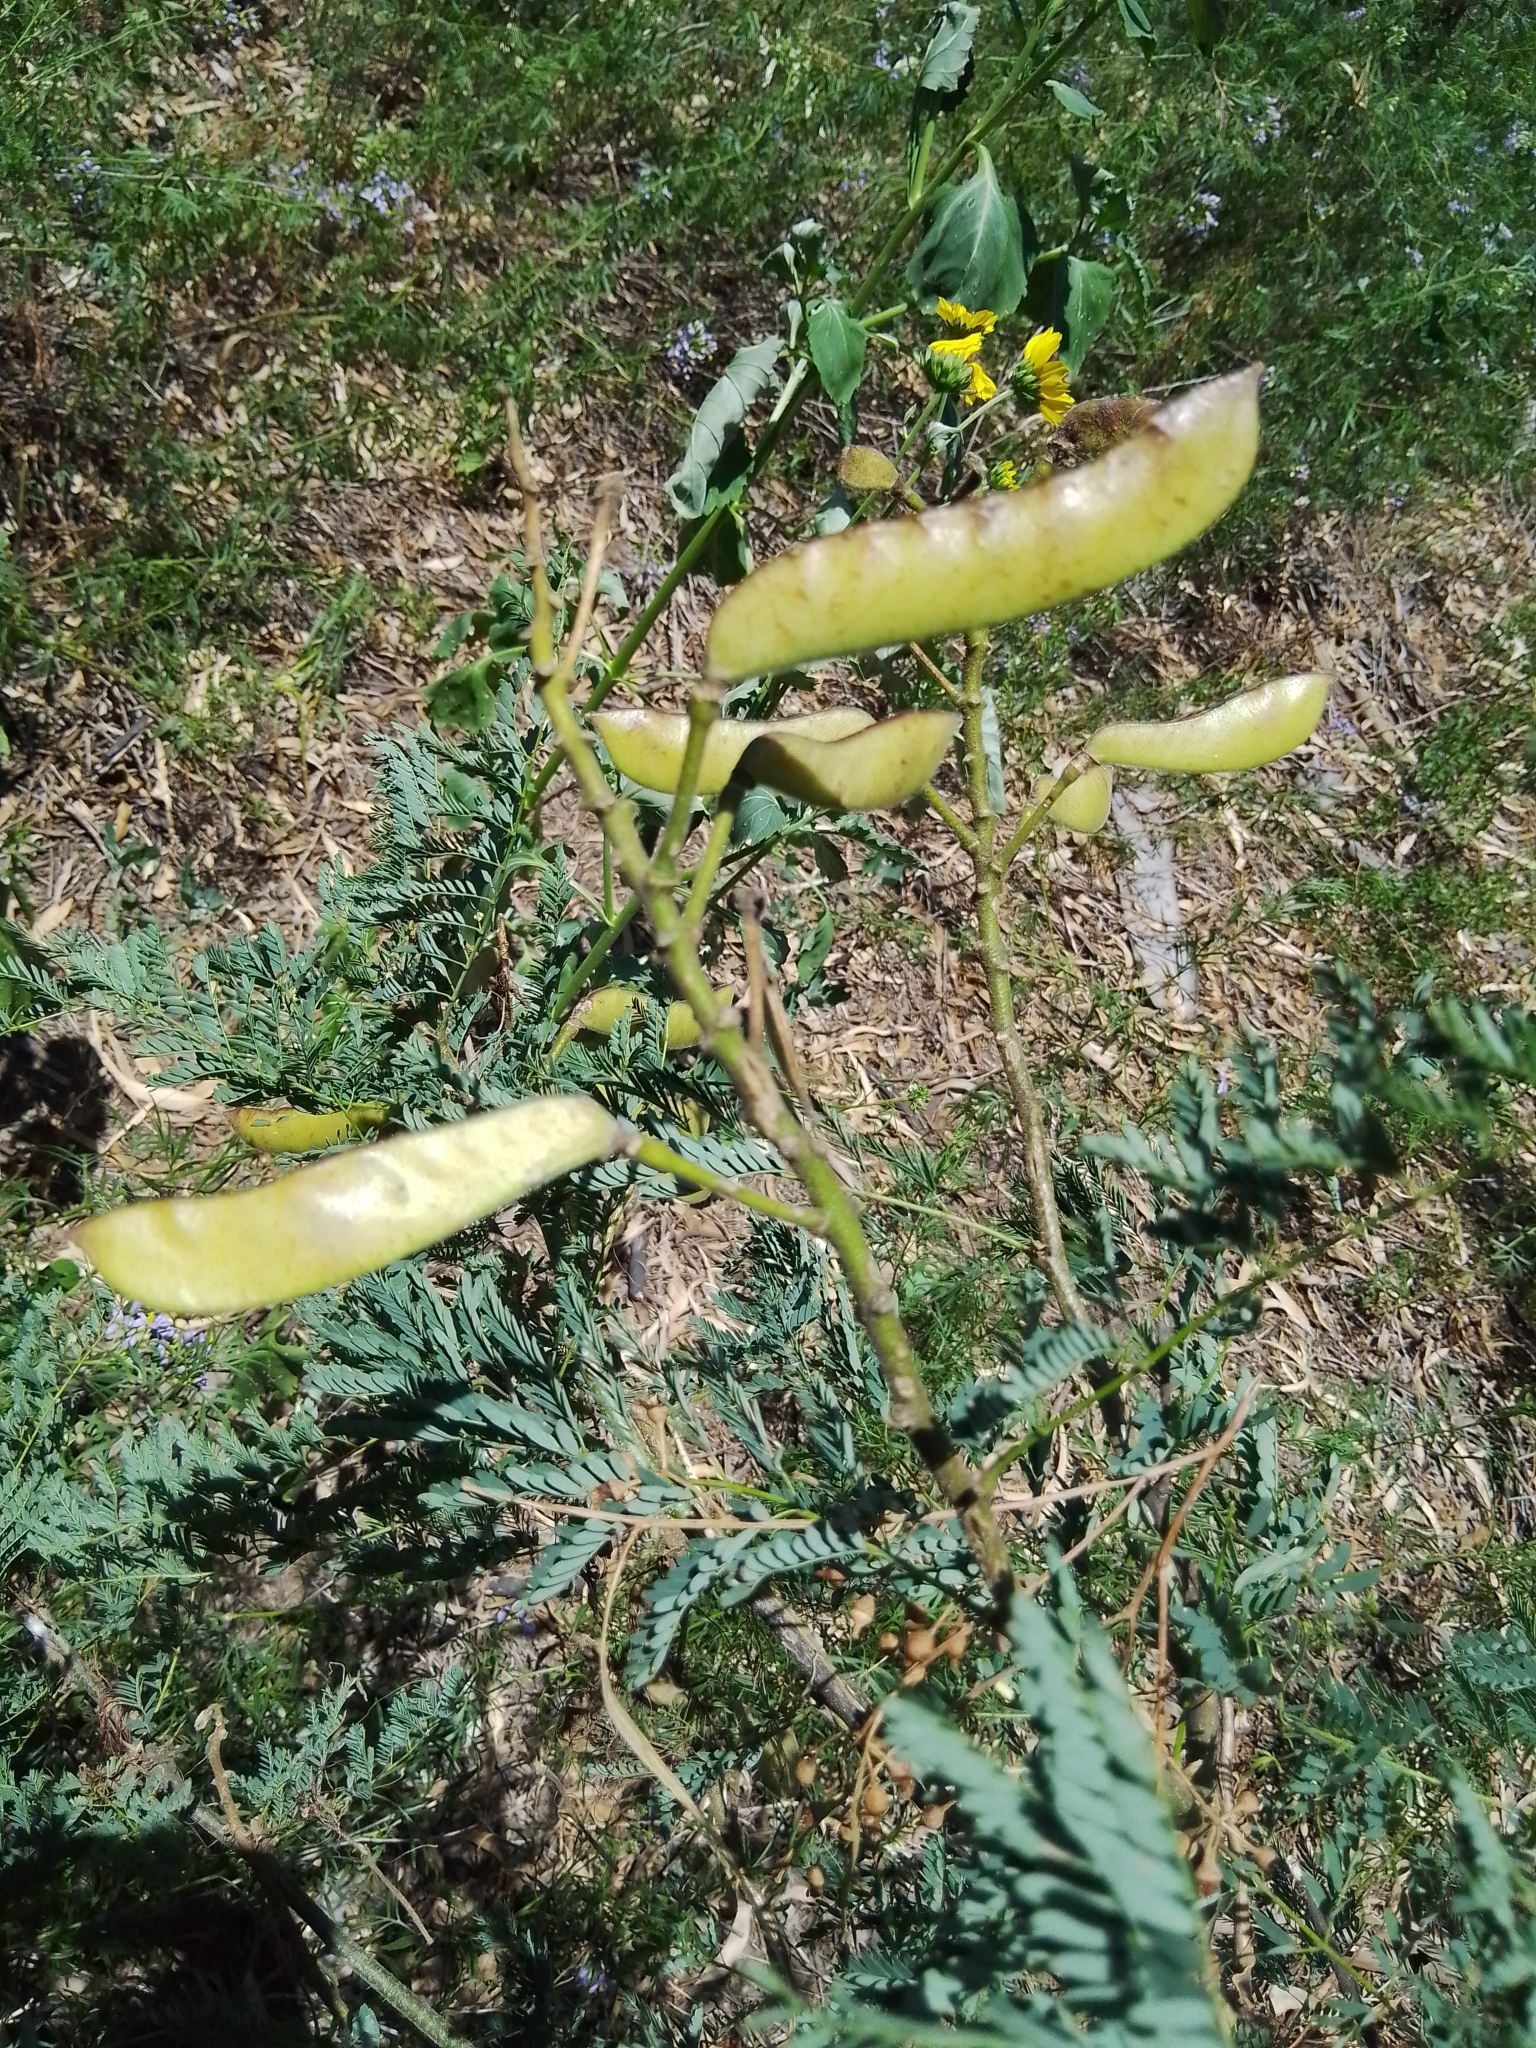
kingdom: Plantae
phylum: Tracheophyta
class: Magnoliopsida
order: Fabales
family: Fabaceae
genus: Erythrostemon
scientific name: Erythrostemon gilliesii
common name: Bird-of-paradise shrub
